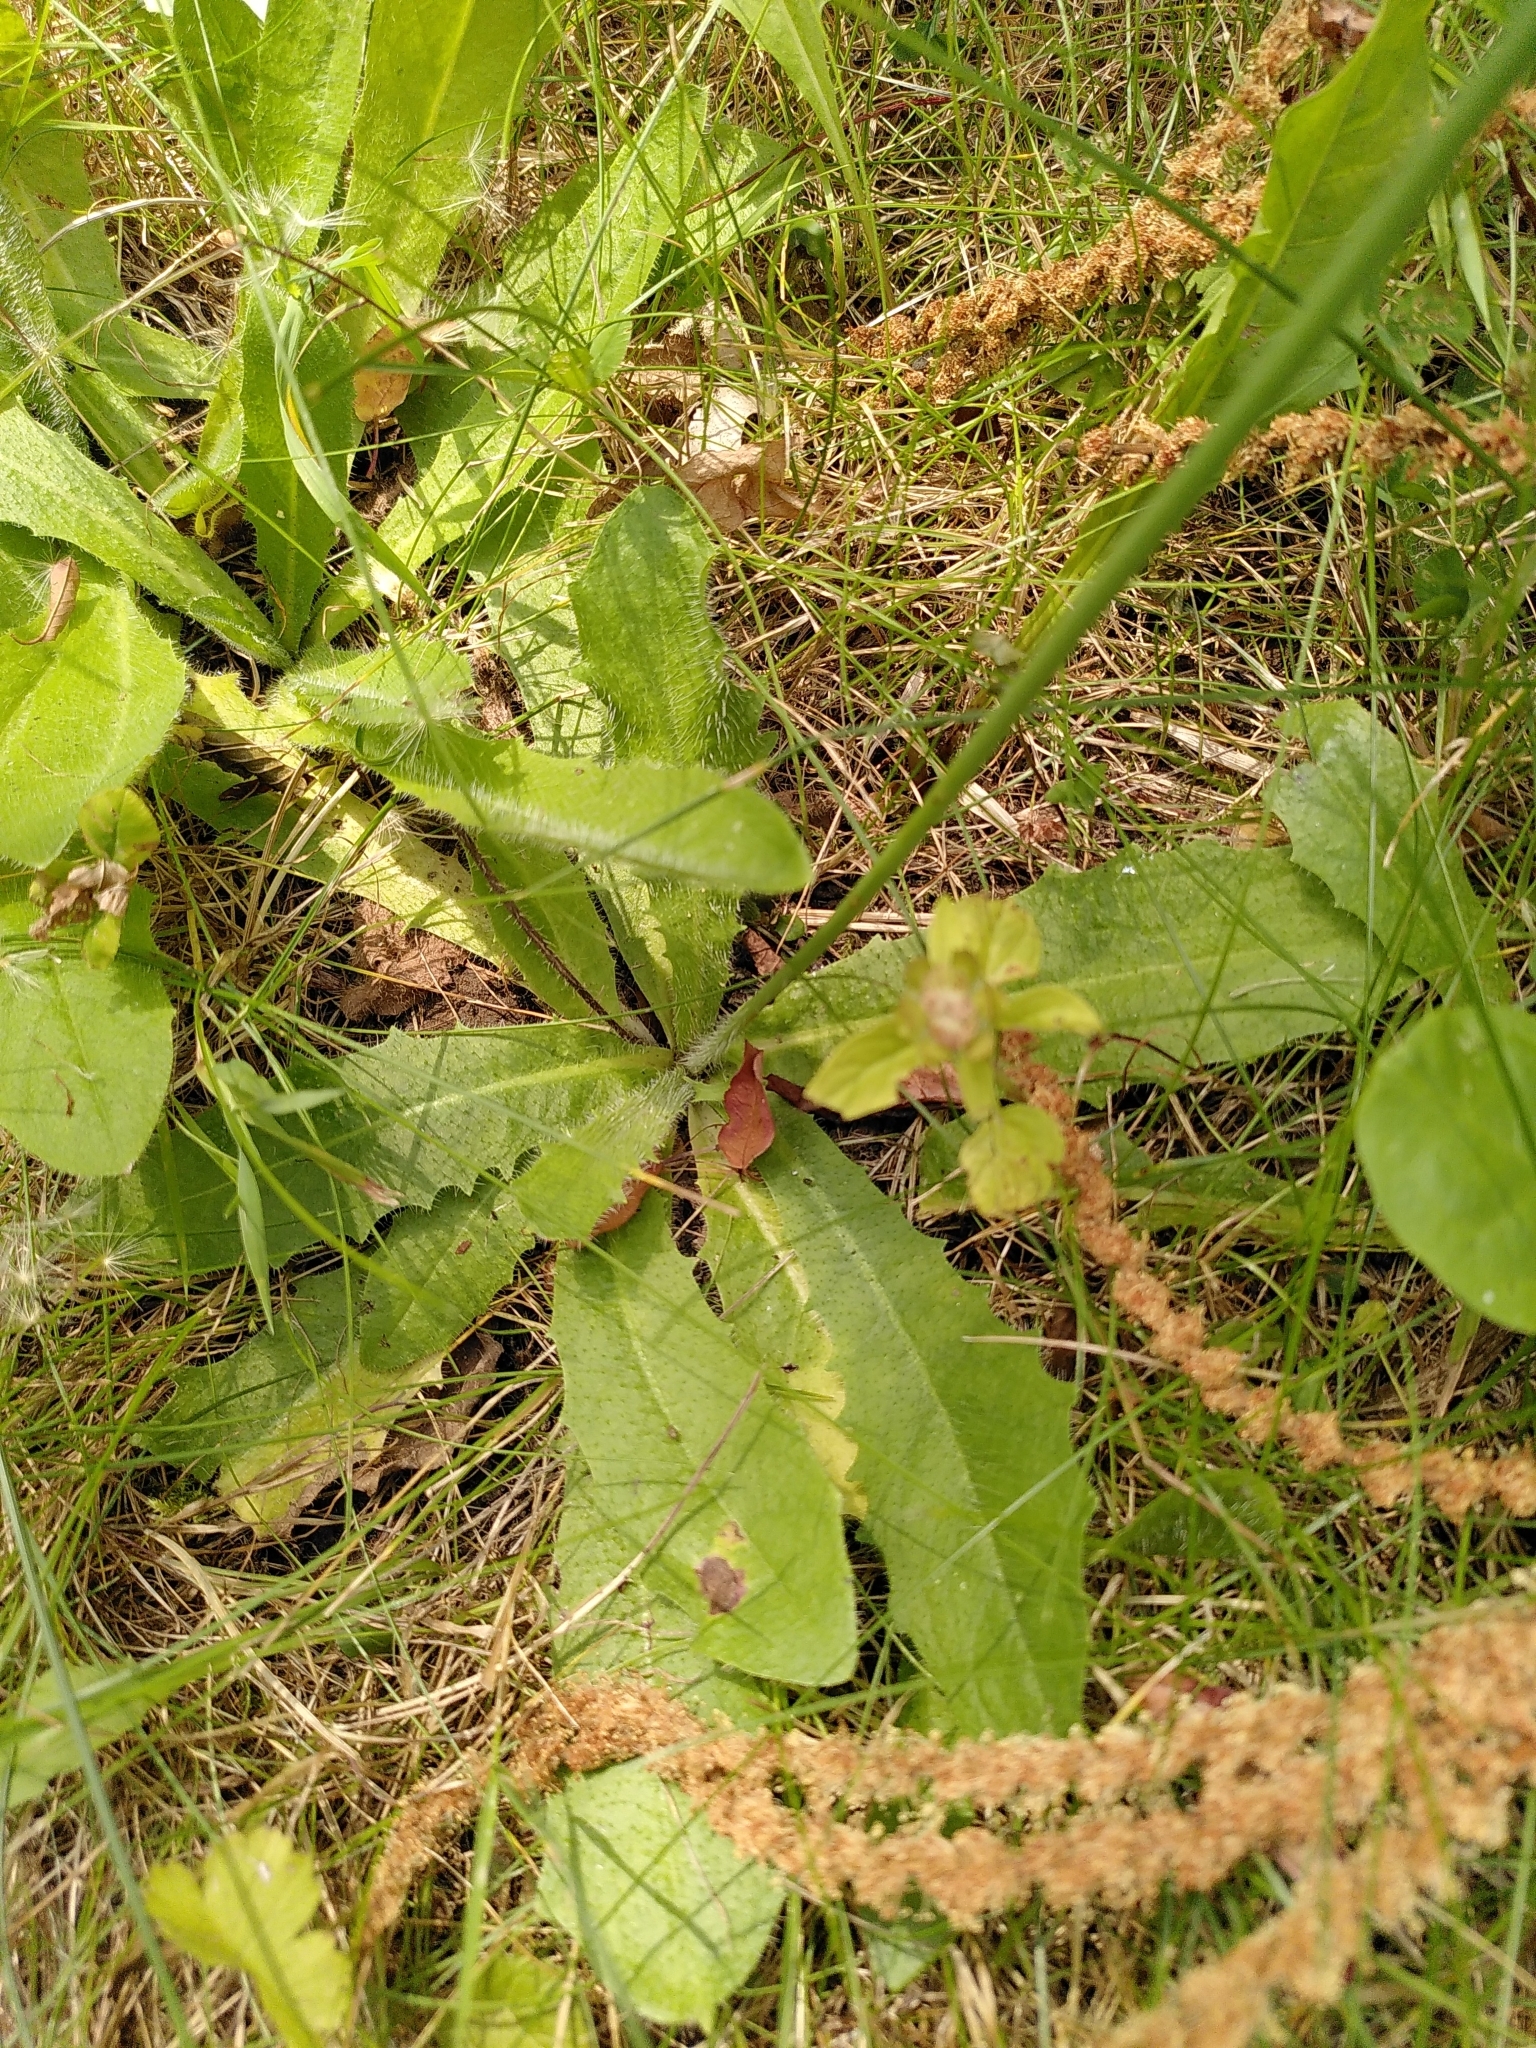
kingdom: Plantae
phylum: Tracheophyta
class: Magnoliopsida
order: Asterales
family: Asteraceae
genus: Hypochaeris
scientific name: Hypochaeris radicata
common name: Flatweed
